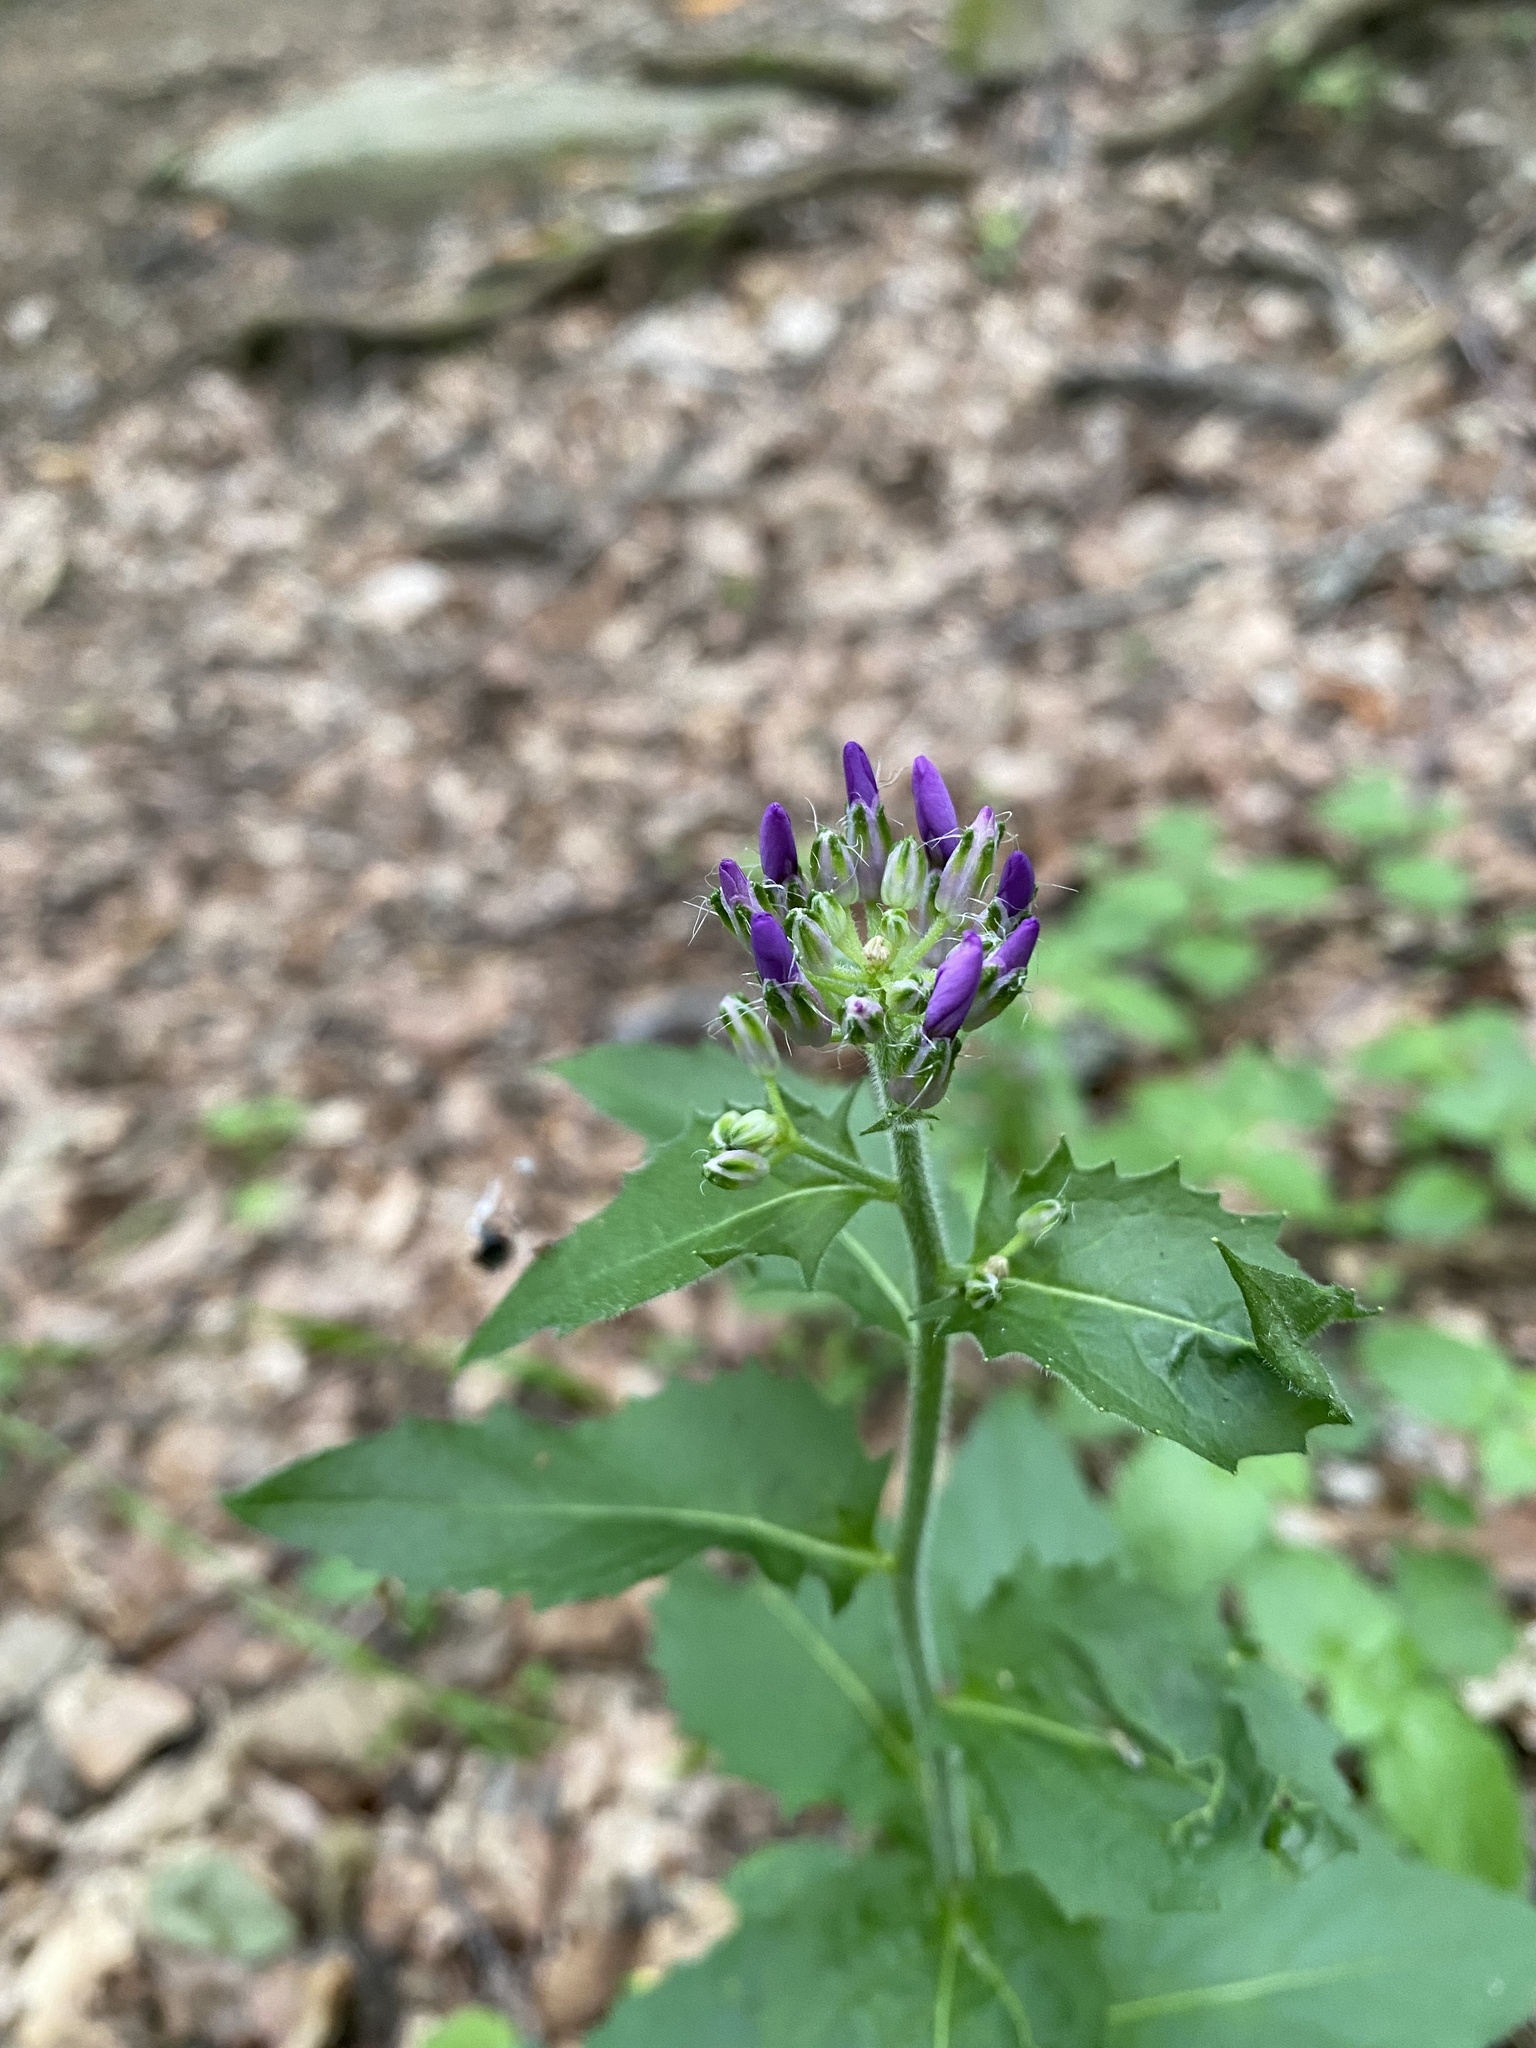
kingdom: Plantae
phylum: Tracheophyta
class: Magnoliopsida
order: Brassicales
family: Brassicaceae
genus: Hesperis
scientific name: Hesperis matronalis
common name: Dame's-violet
